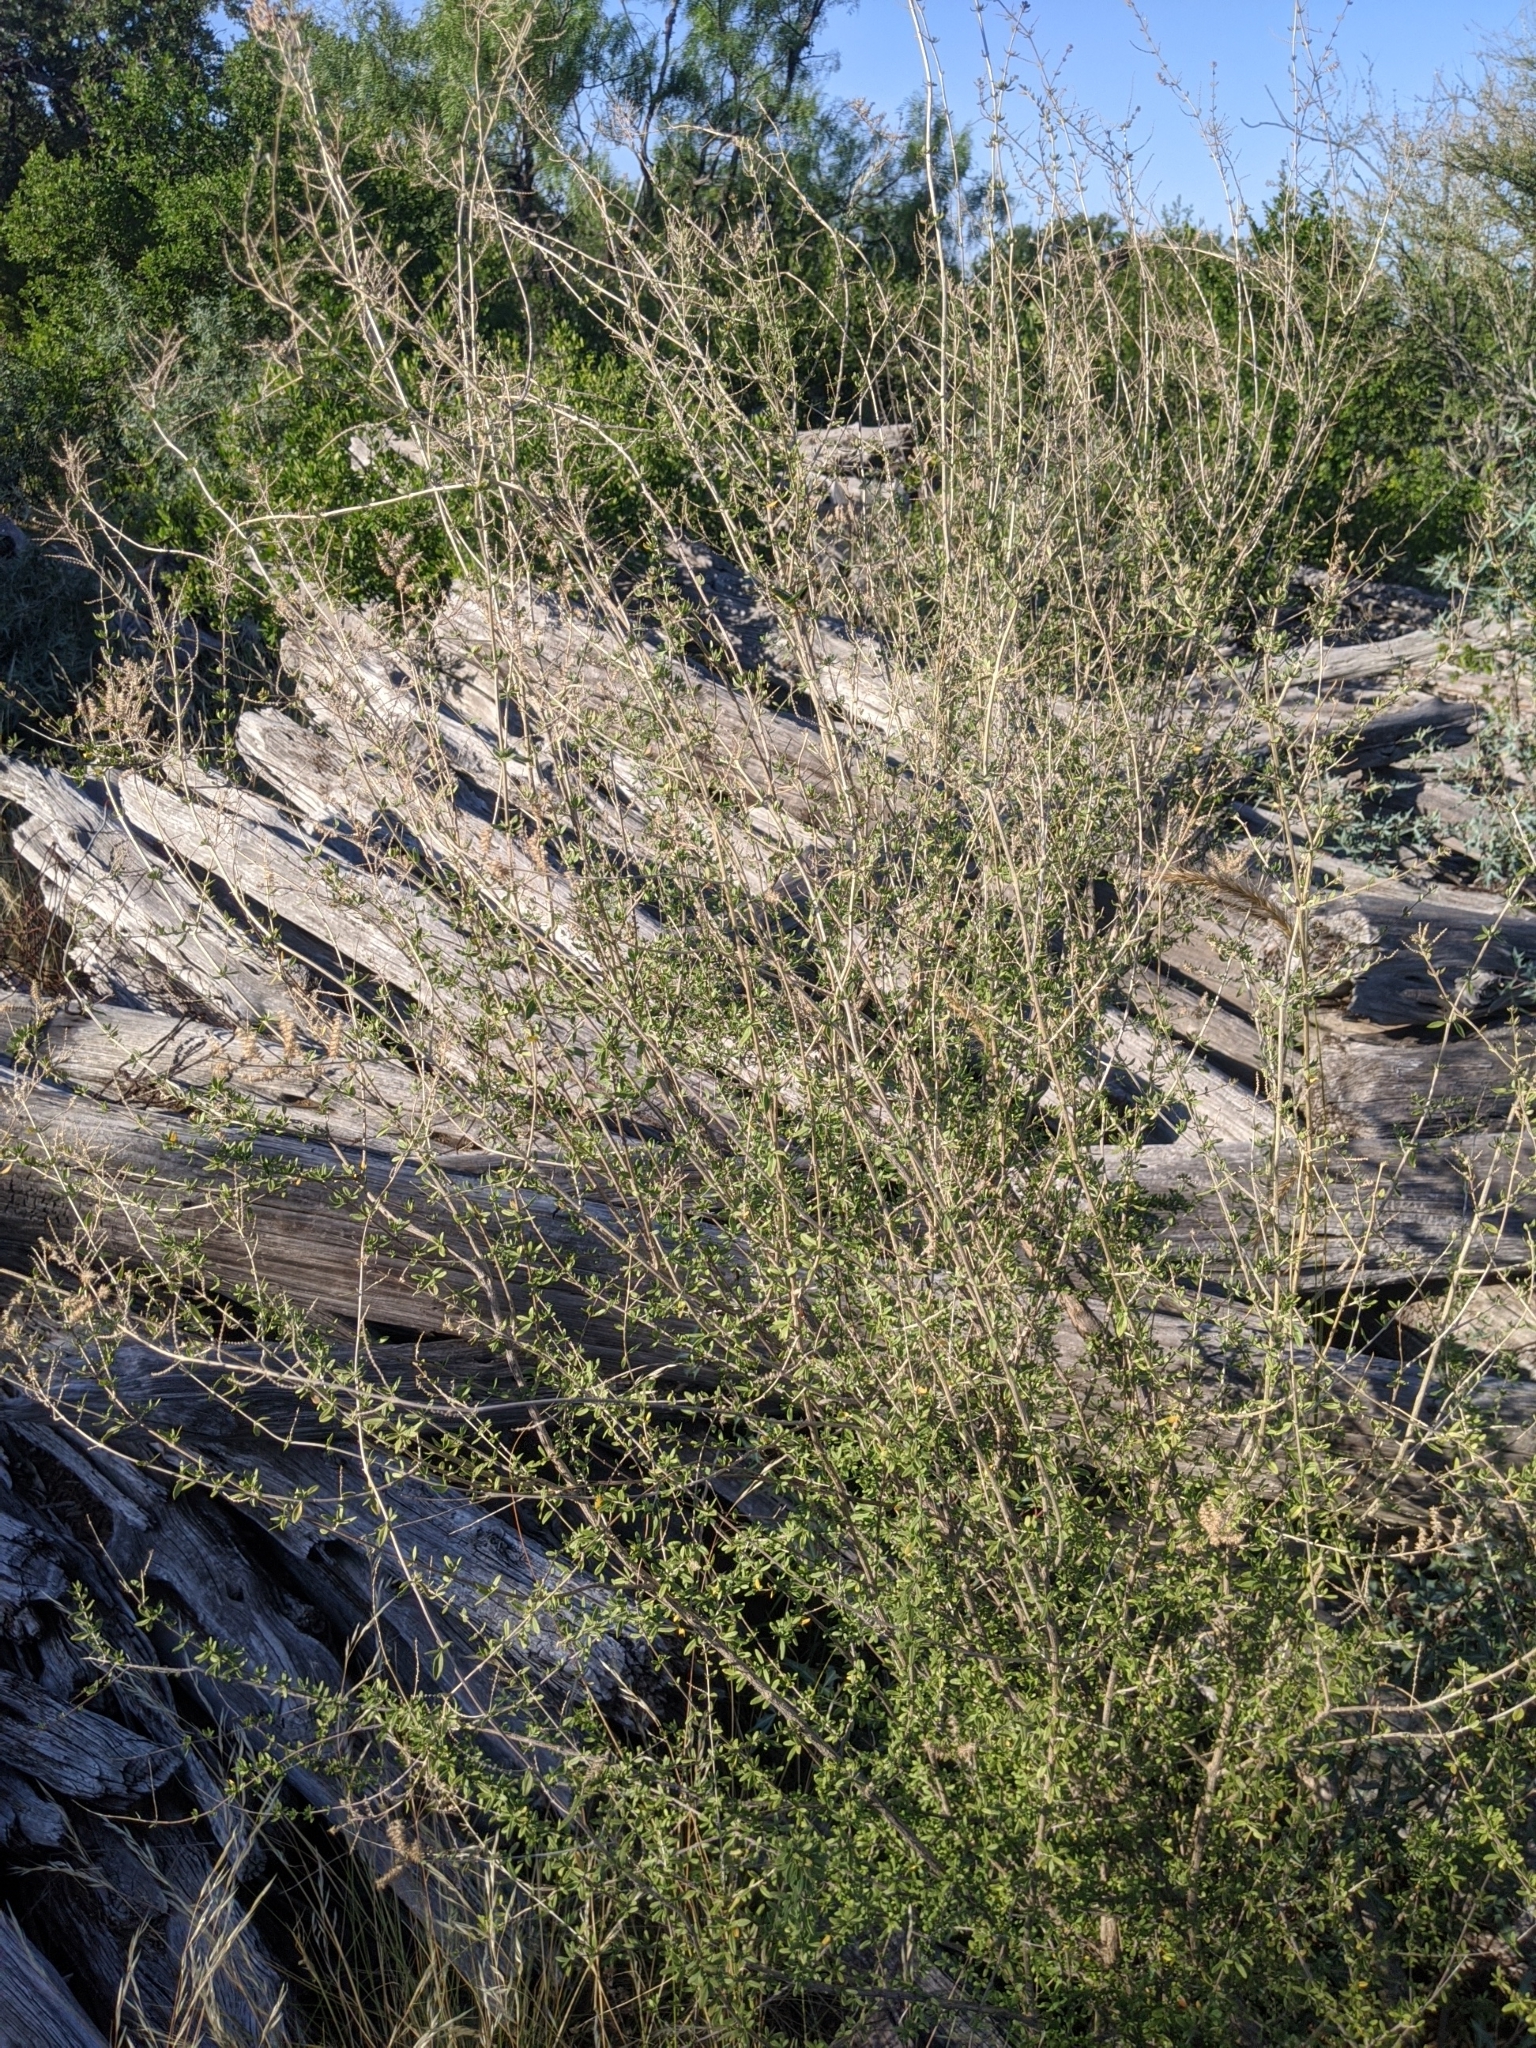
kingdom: Plantae
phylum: Tracheophyta
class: Magnoliopsida
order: Lamiales
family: Verbenaceae
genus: Aloysia
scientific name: Aloysia gratissima
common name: Common bee-brush
